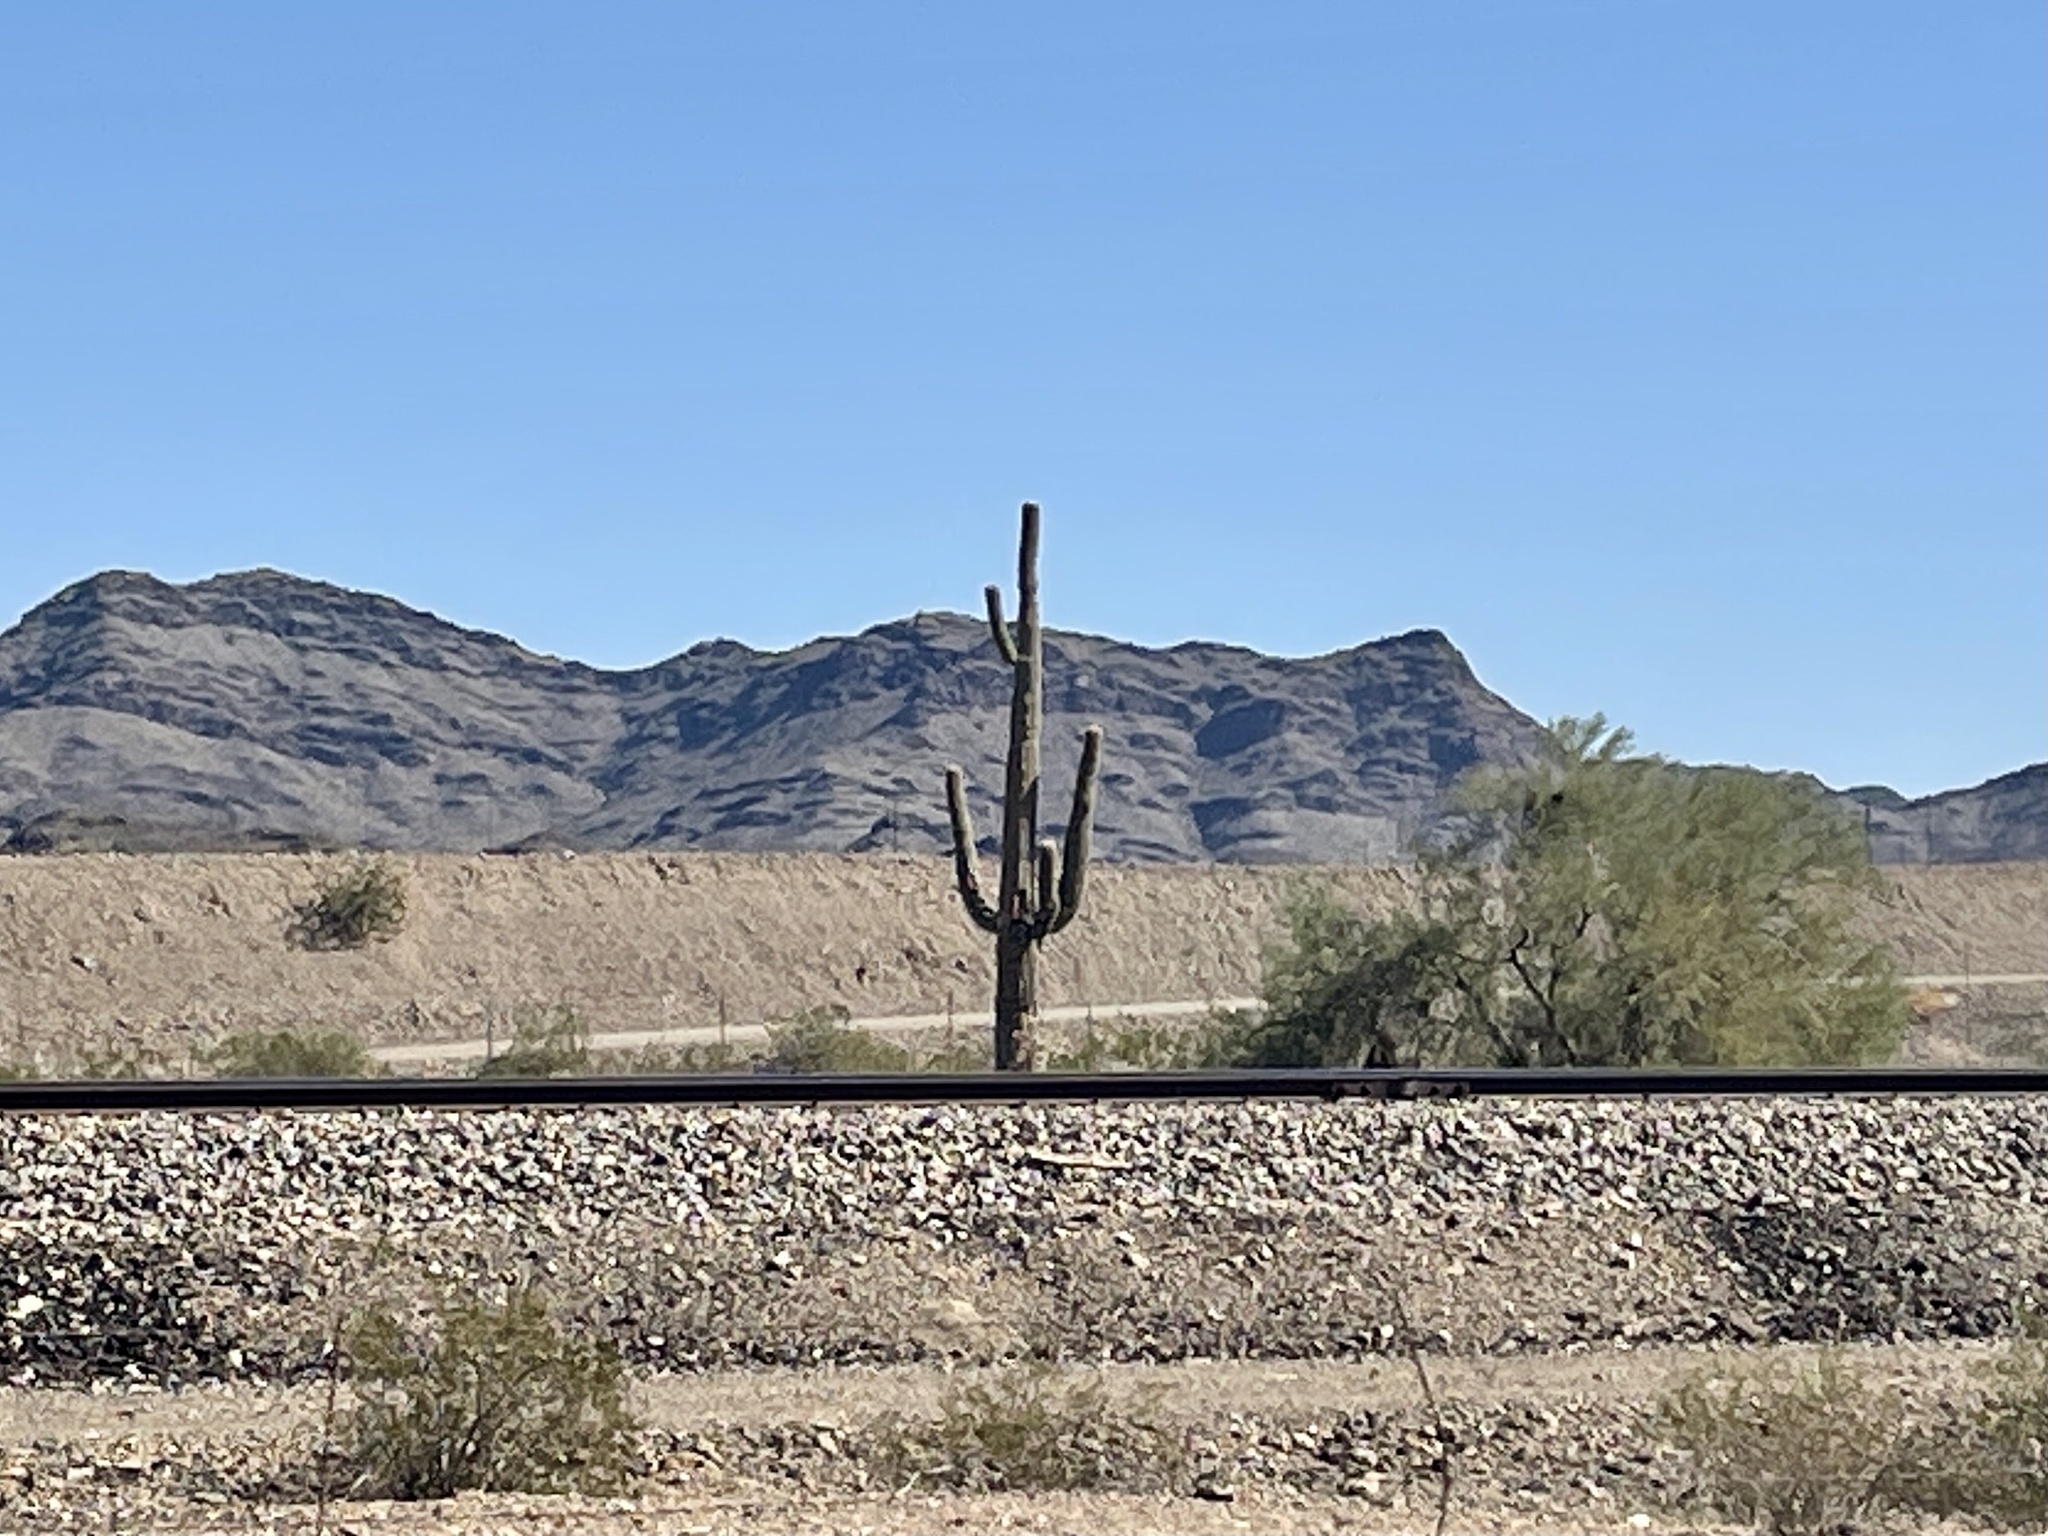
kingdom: Plantae
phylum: Tracheophyta
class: Magnoliopsida
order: Caryophyllales
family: Cactaceae
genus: Carnegiea
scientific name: Carnegiea gigantea
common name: Saguaro
